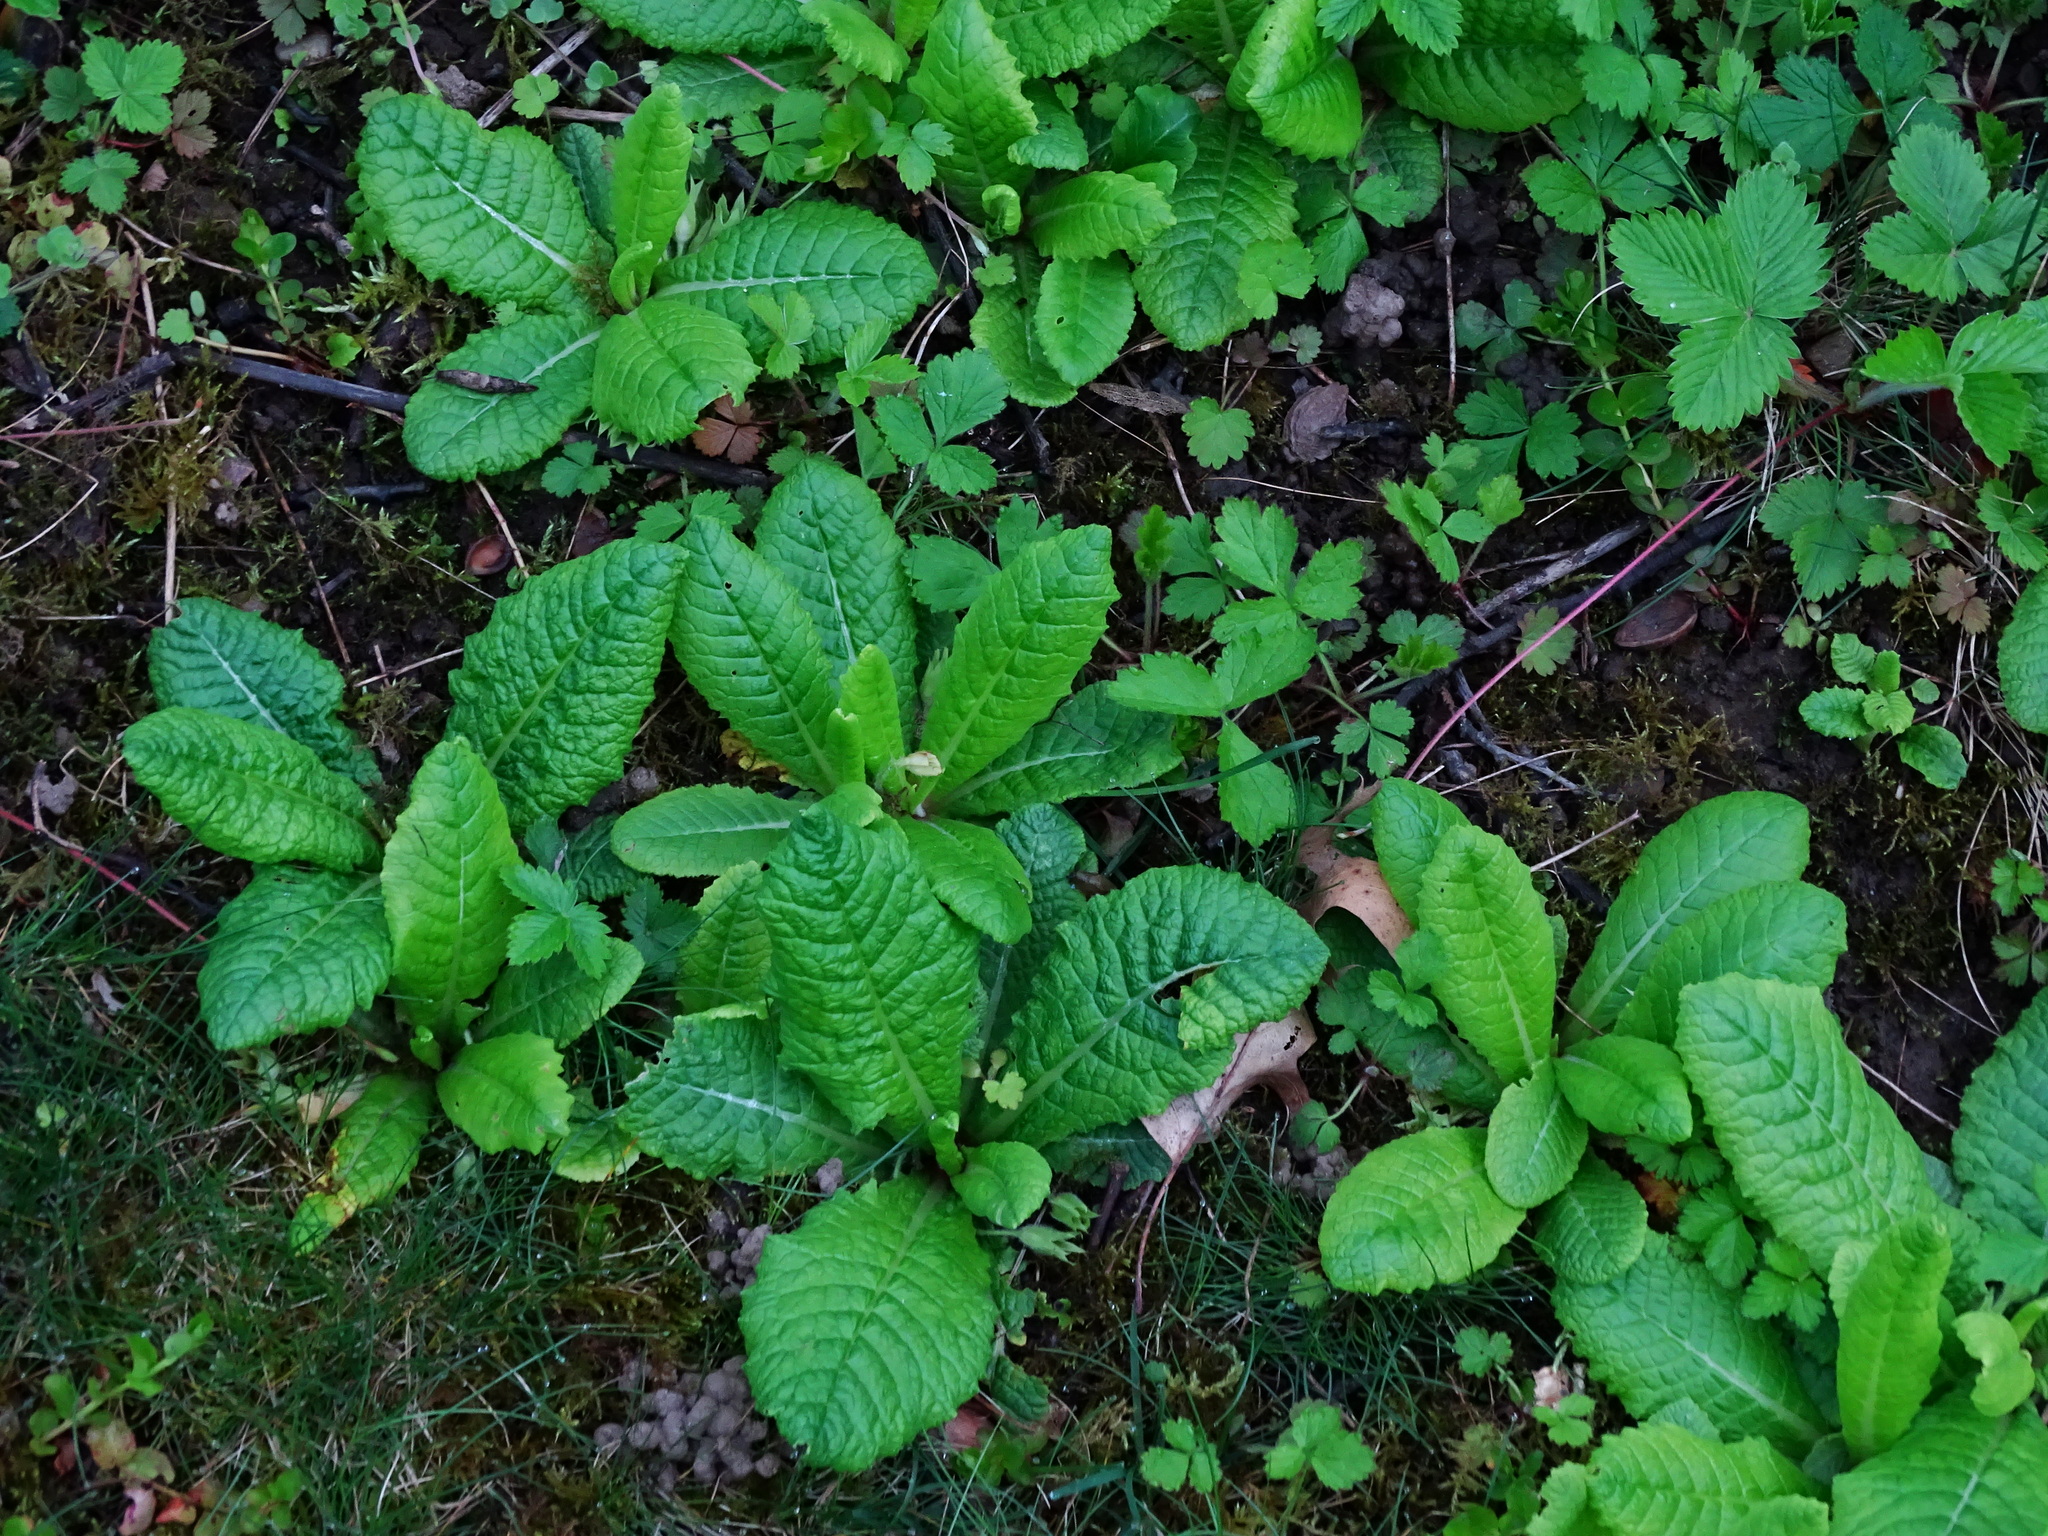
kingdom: Plantae
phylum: Tracheophyta
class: Magnoliopsida
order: Ericales
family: Primulaceae
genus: Primula
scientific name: Primula vulgaris
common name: Primrose
